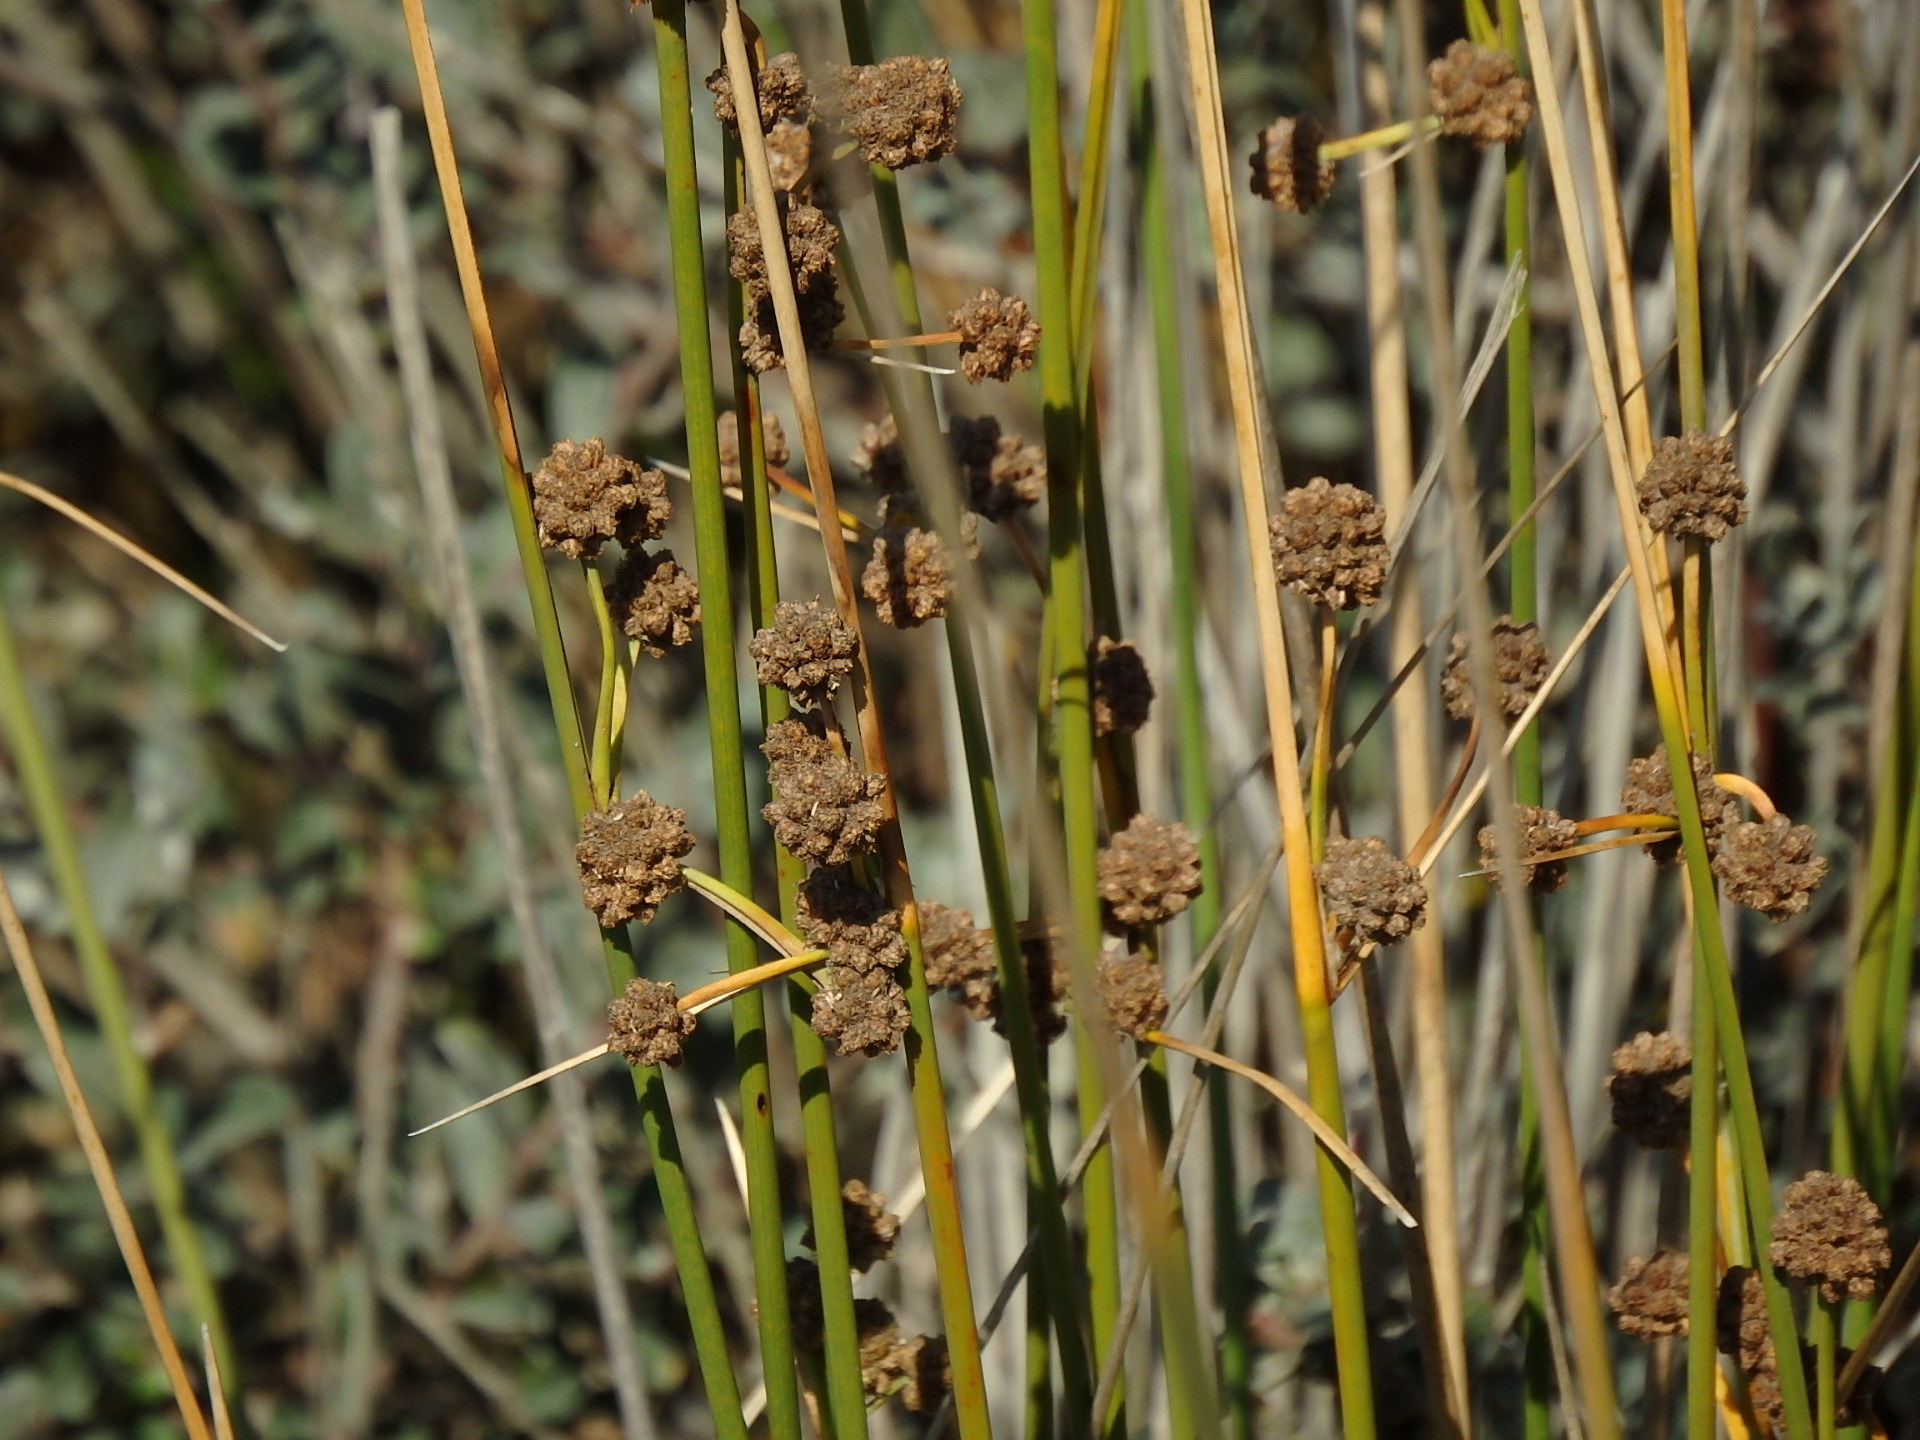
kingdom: Plantae
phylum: Tracheophyta
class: Liliopsida
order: Poales
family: Cyperaceae
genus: Scirpoides
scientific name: Scirpoides holoschoenus
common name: Round-headed club-rush
